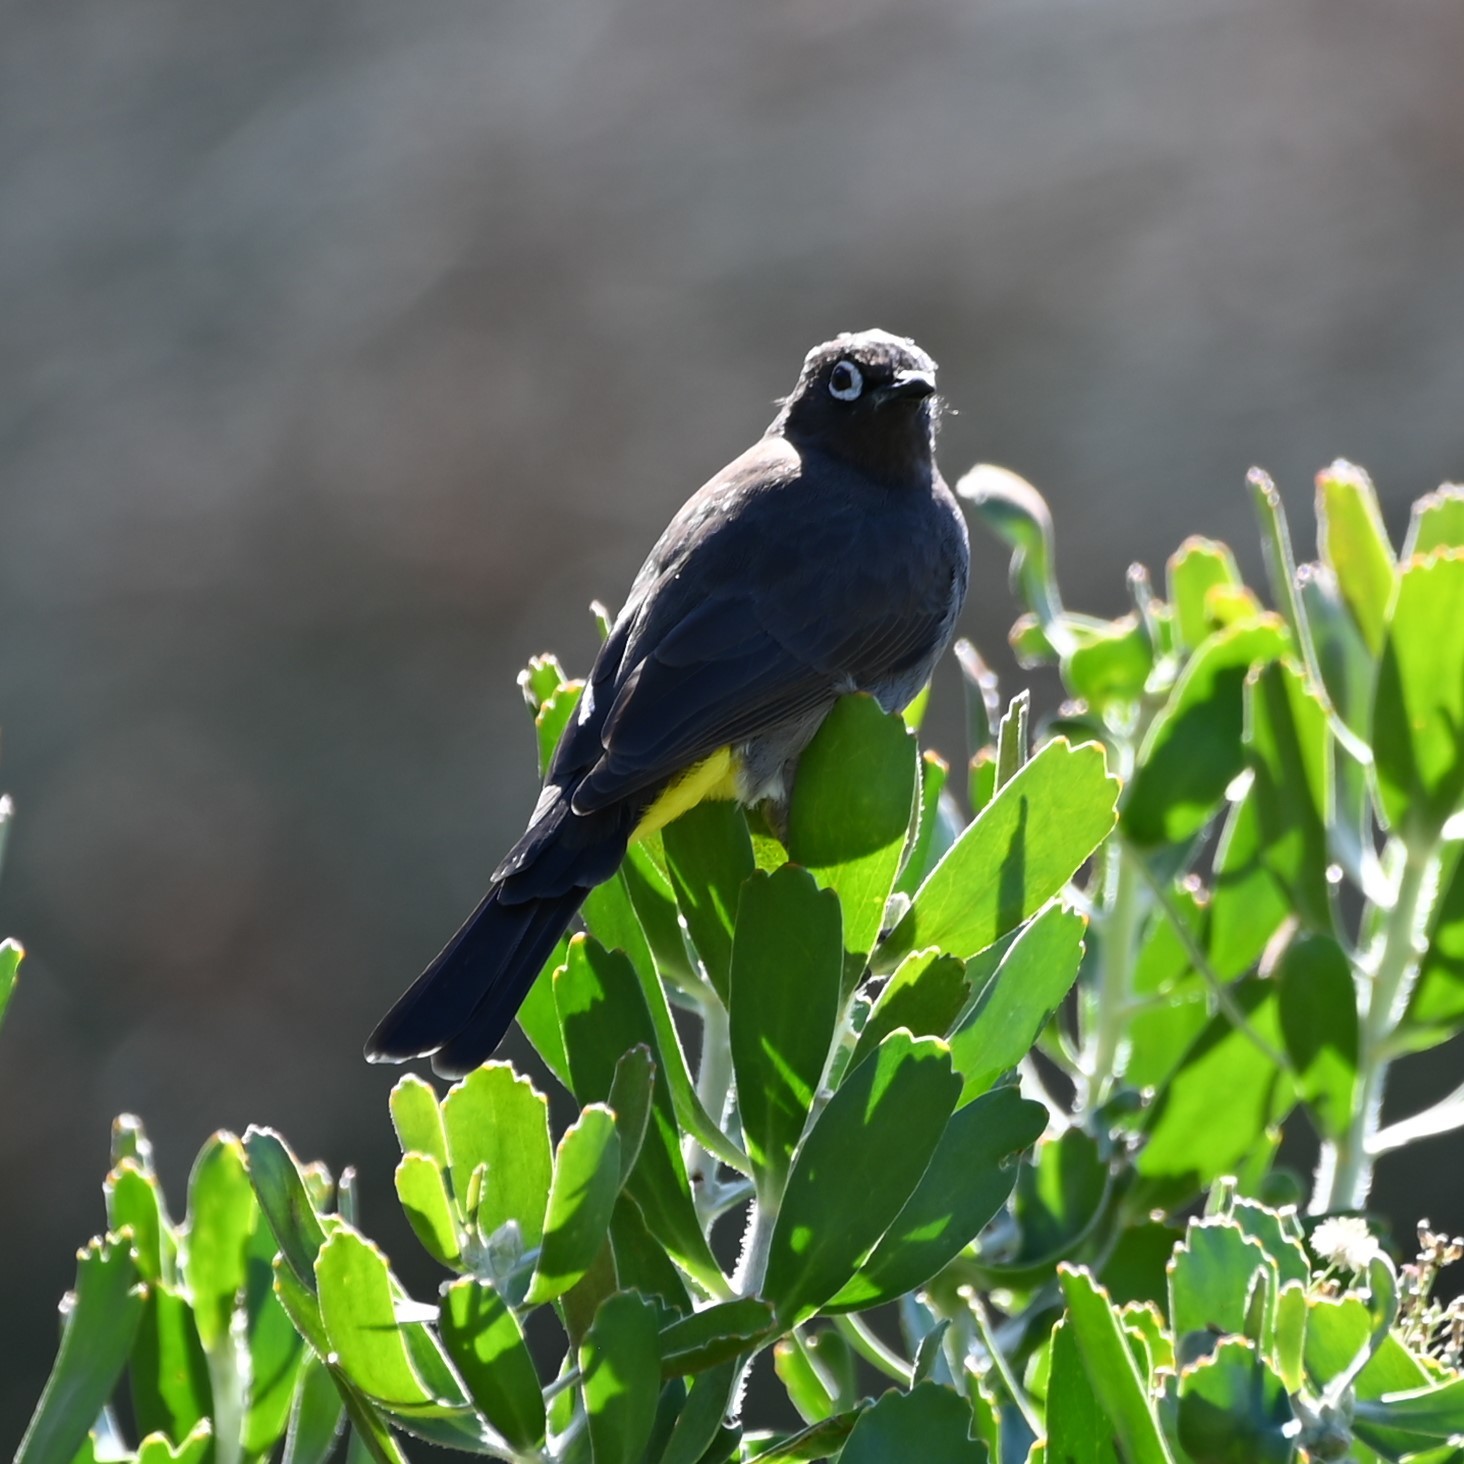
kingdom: Animalia
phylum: Chordata
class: Aves
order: Passeriformes
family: Pycnonotidae
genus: Pycnonotus
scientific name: Pycnonotus capensis
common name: Cape bulbul
